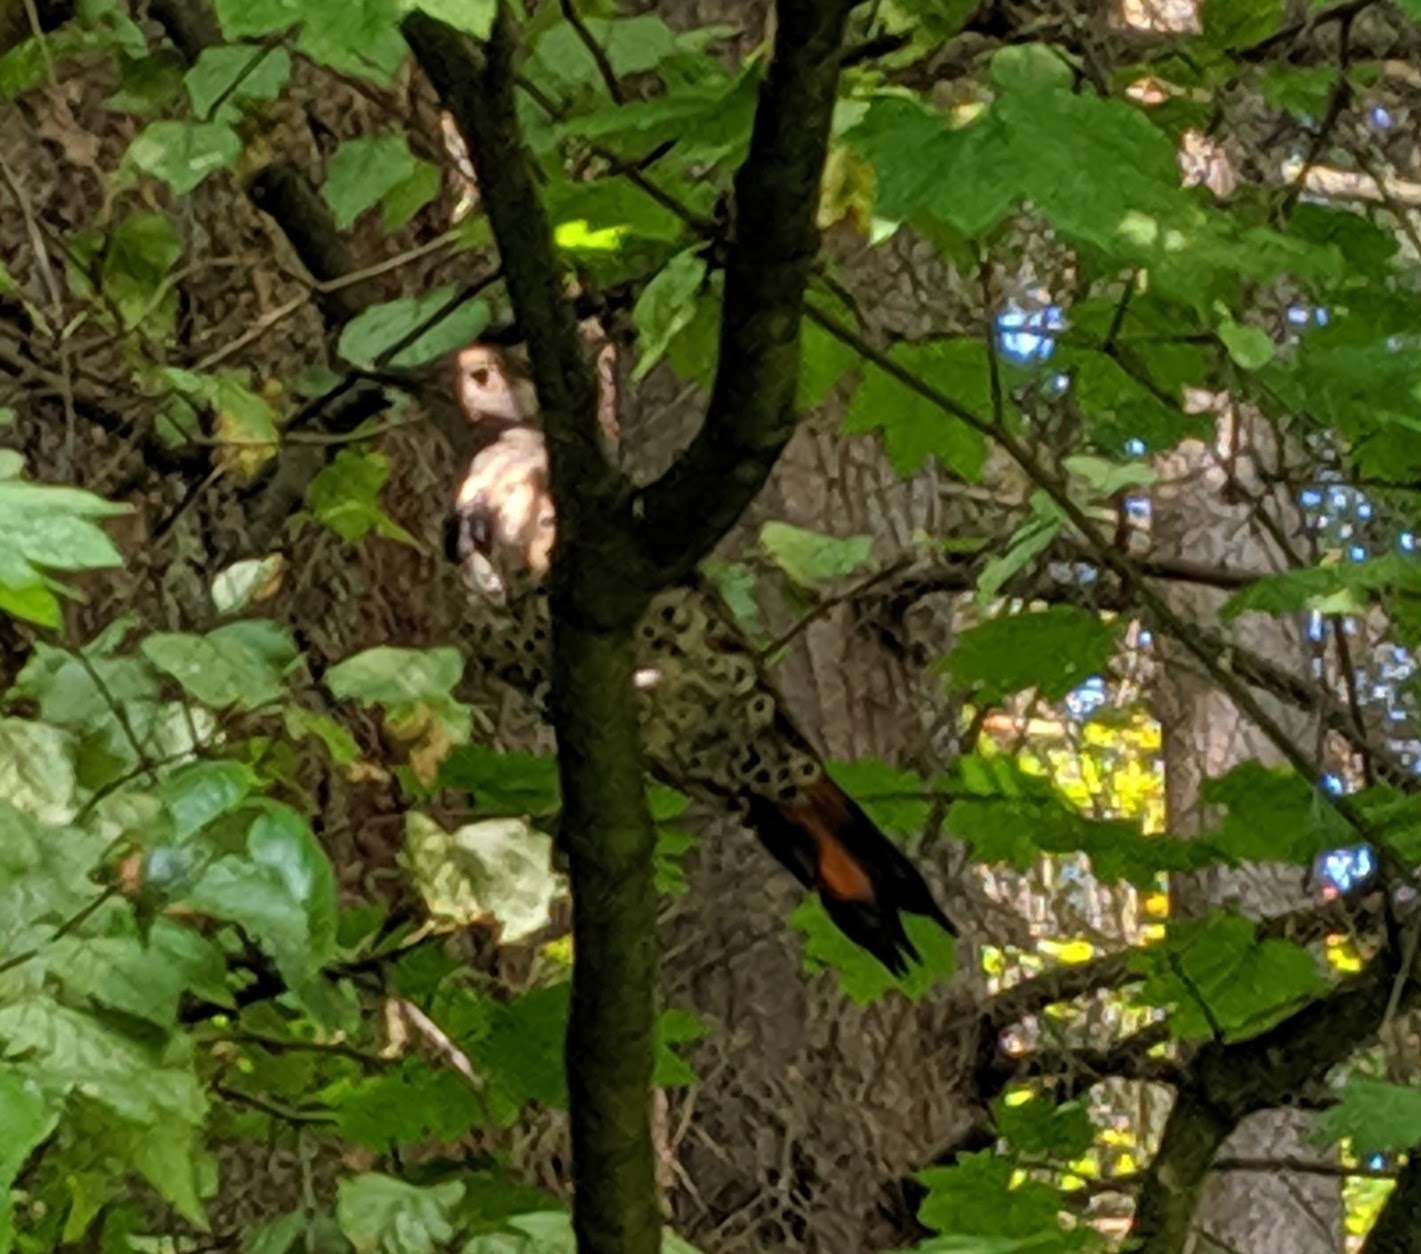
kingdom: Animalia
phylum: Chordata
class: Aves
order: Piciformes
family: Picidae
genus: Colaptes
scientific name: Colaptes auratus
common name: Northern flicker
